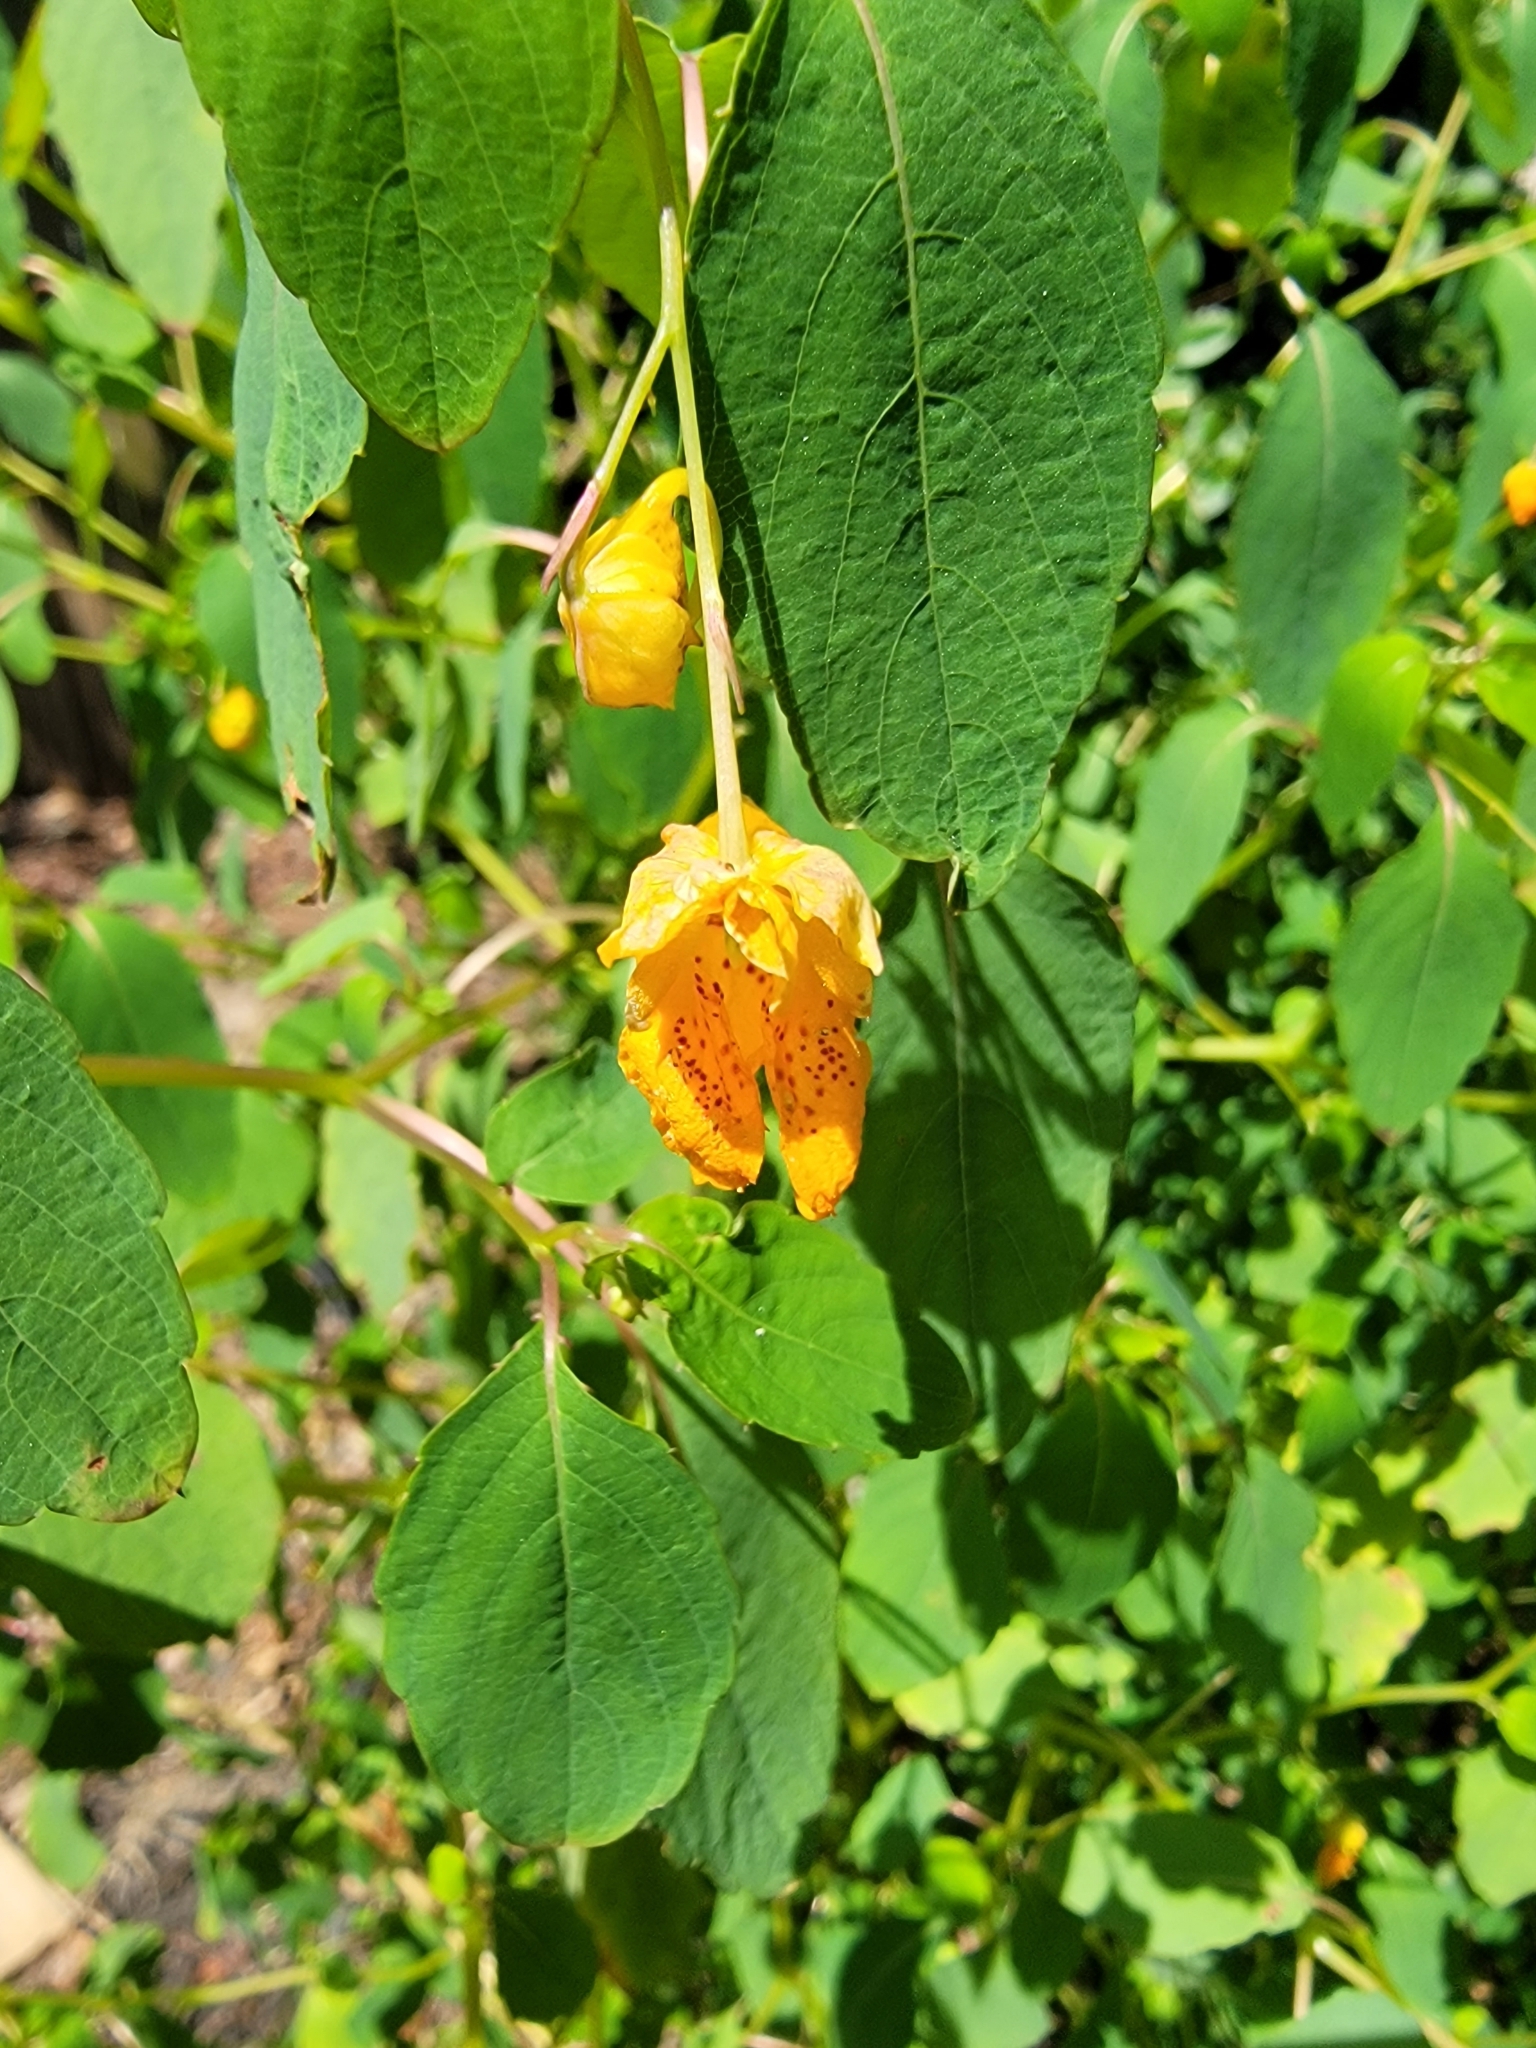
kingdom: Plantae
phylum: Tracheophyta
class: Magnoliopsida
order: Ericales
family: Balsaminaceae
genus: Impatiens
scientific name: Impatiens capensis
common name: Orange balsam
